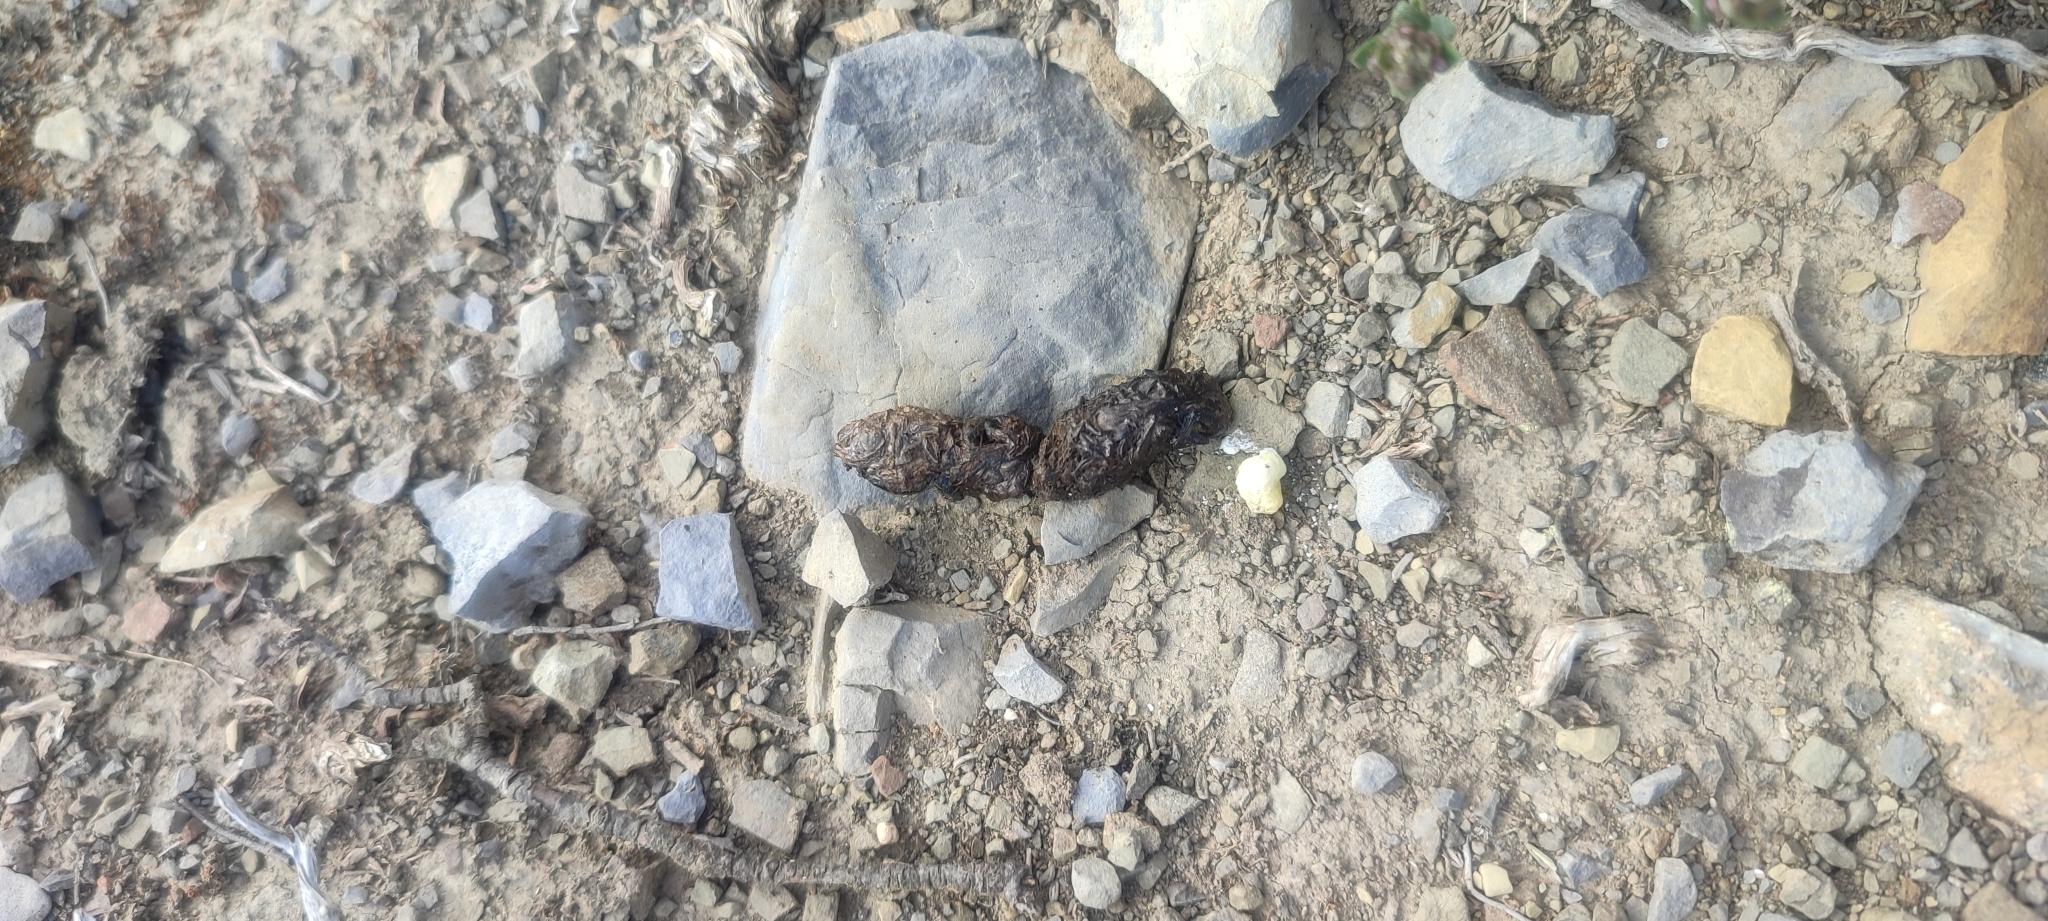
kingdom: Animalia
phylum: Chordata
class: Squamata
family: Lacertidae
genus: Timon
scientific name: Timon lepidus
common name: Ocellated lizard
